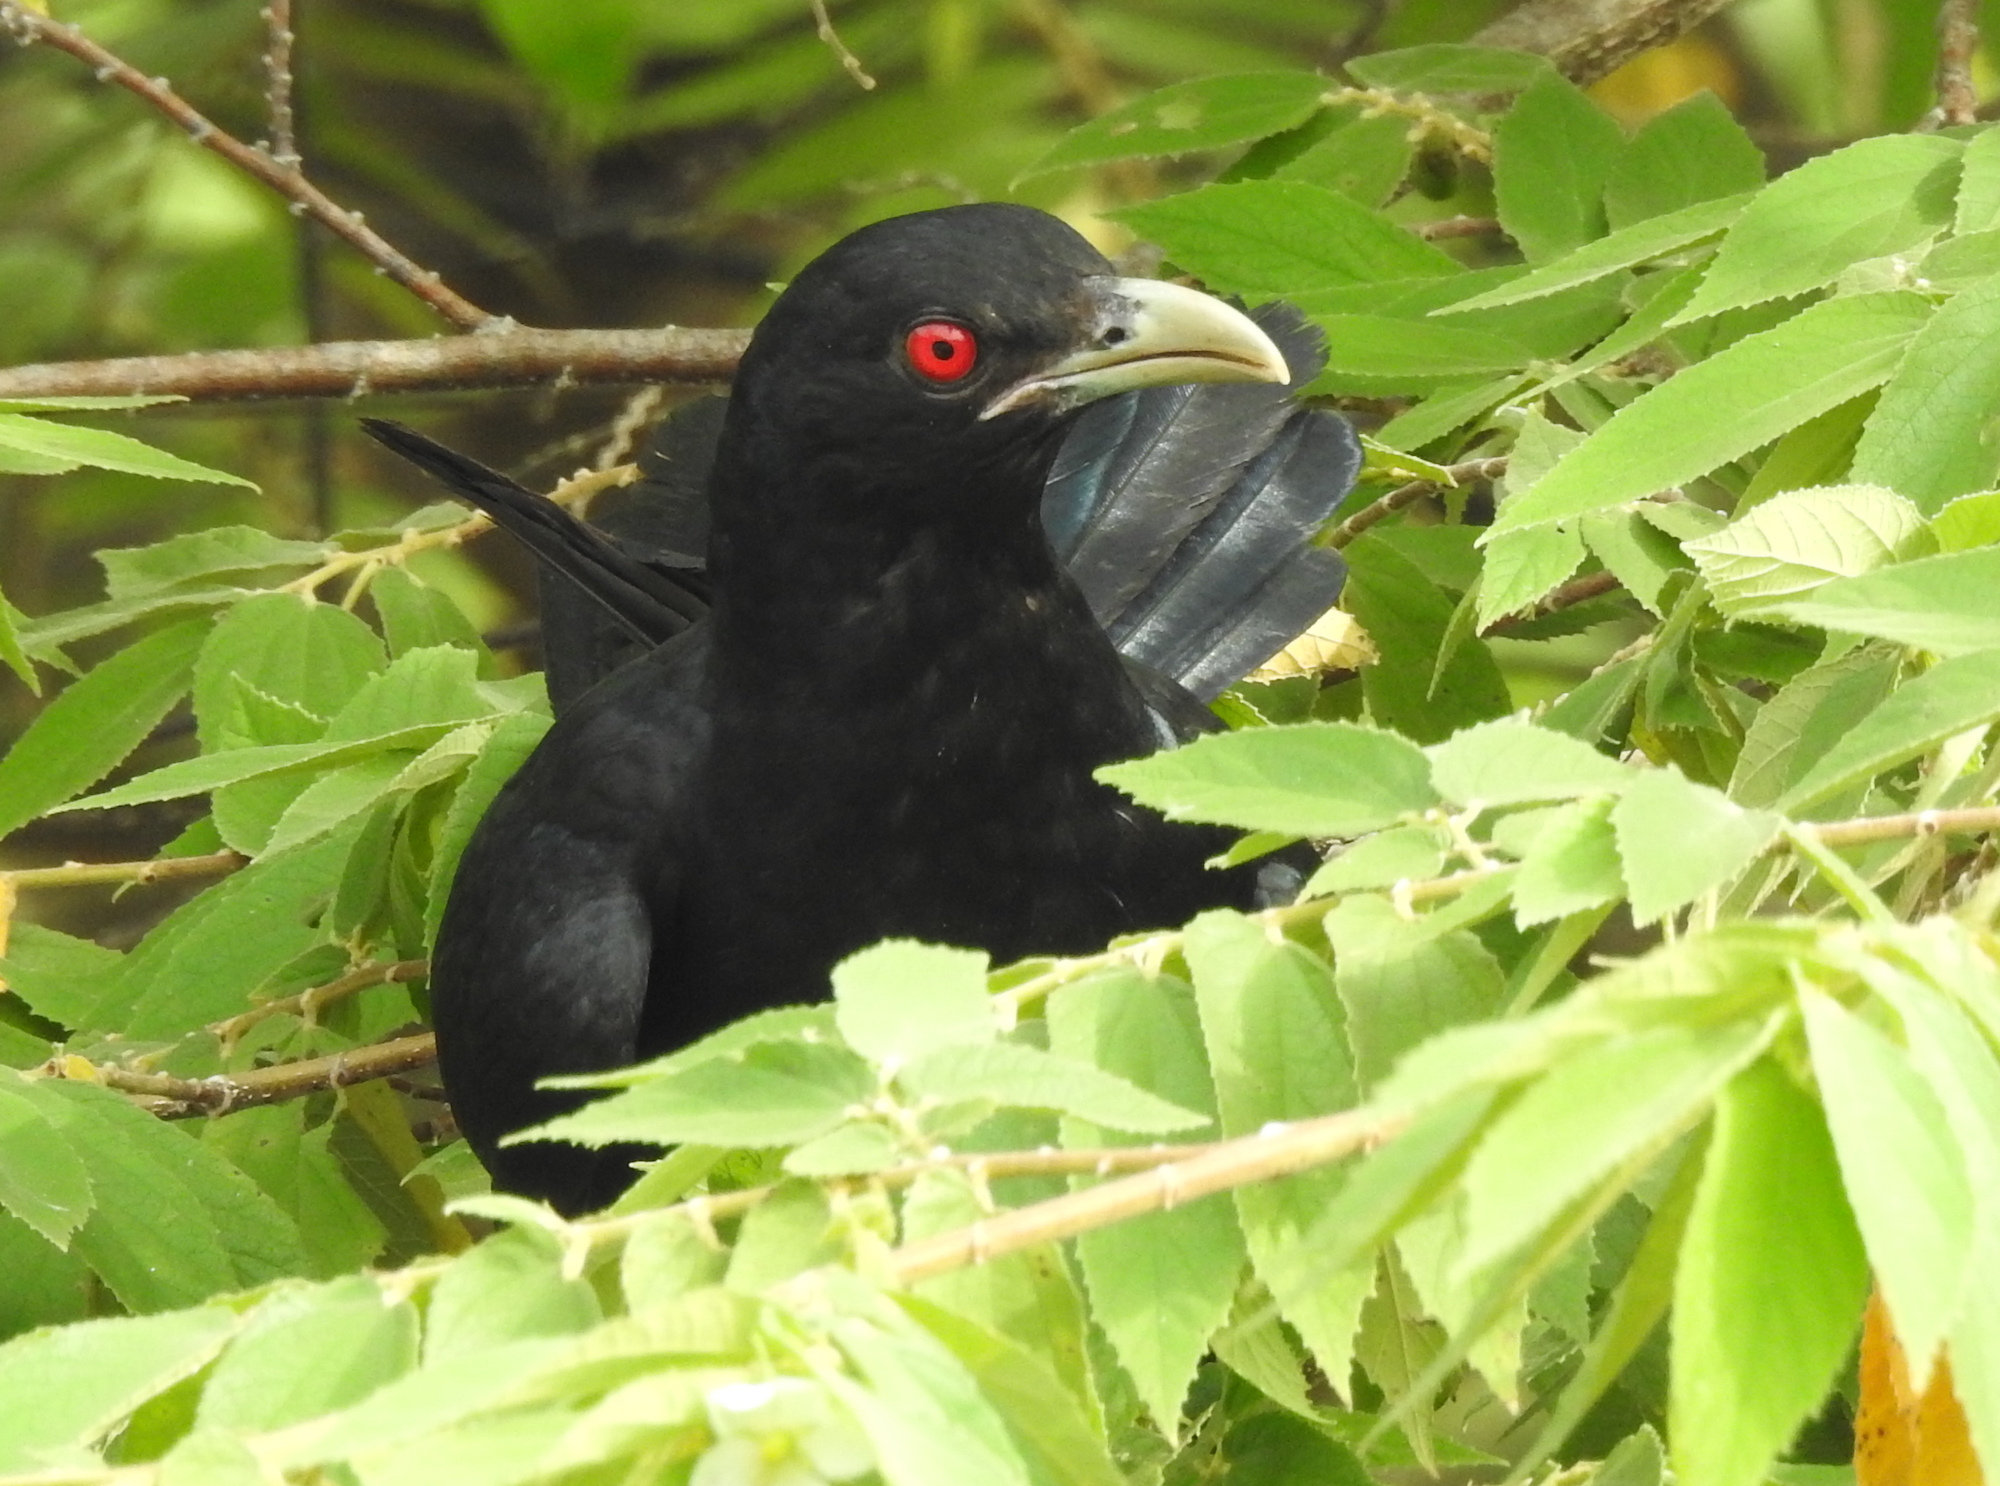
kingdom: Animalia
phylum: Chordata
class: Aves
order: Cuculiformes
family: Cuculidae
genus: Eudynamys
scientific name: Eudynamys scolopaceus
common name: Asian koel
